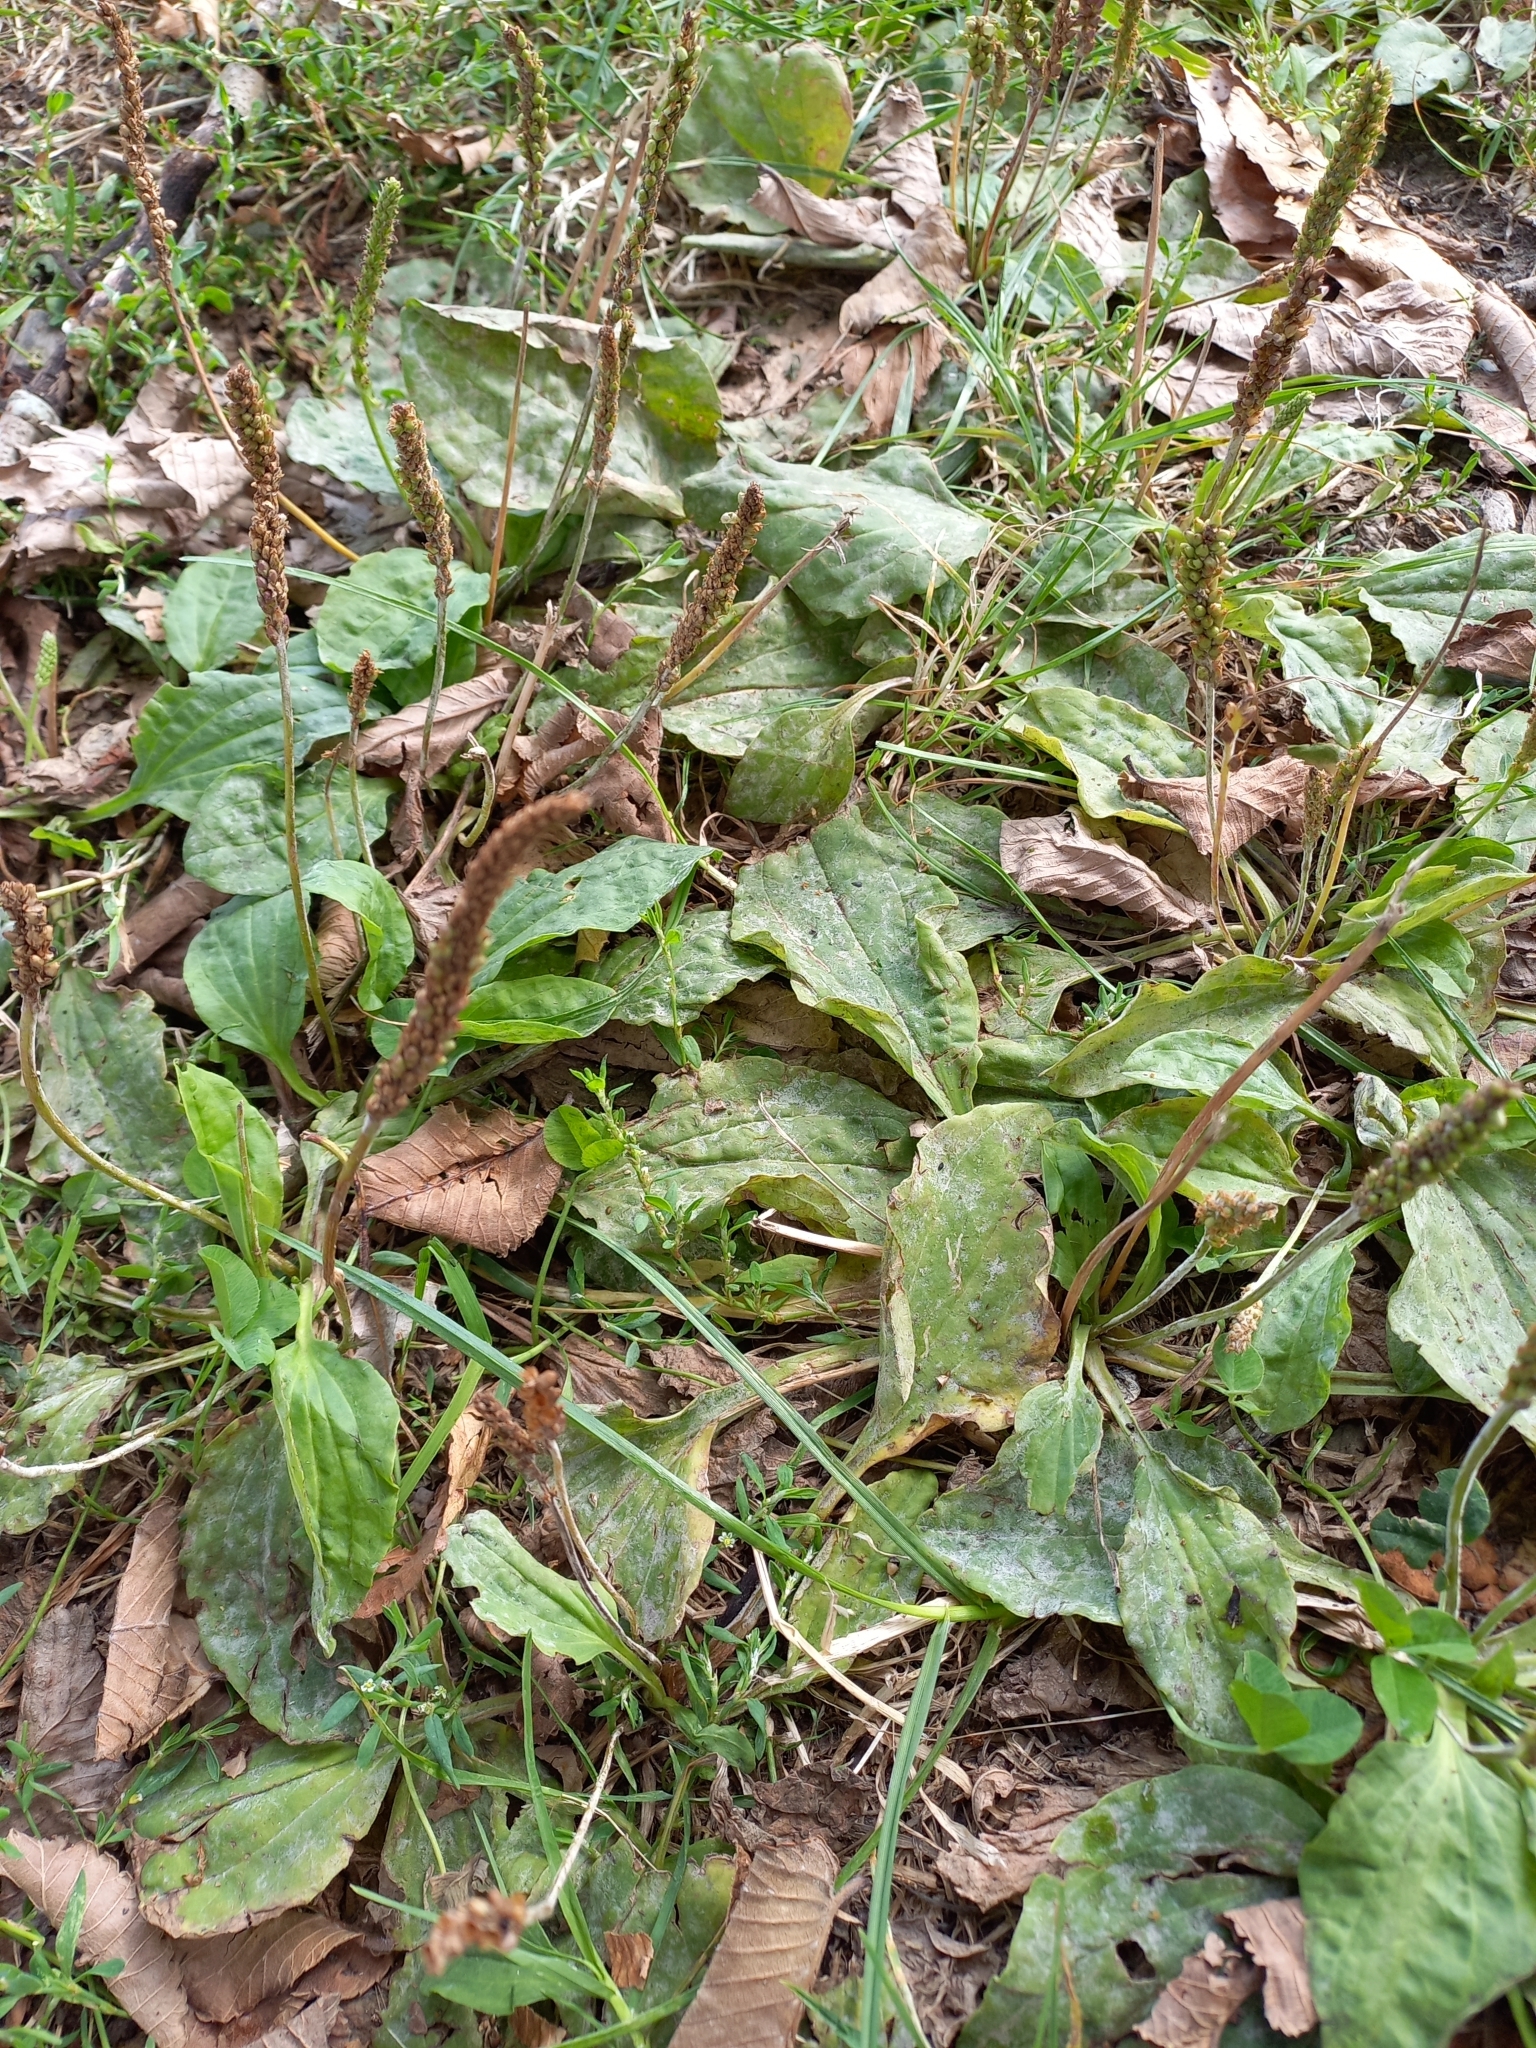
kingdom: Plantae
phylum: Tracheophyta
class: Magnoliopsida
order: Lamiales
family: Plantaginaceae
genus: Plantago
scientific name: Plantago major
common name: Common plantain
